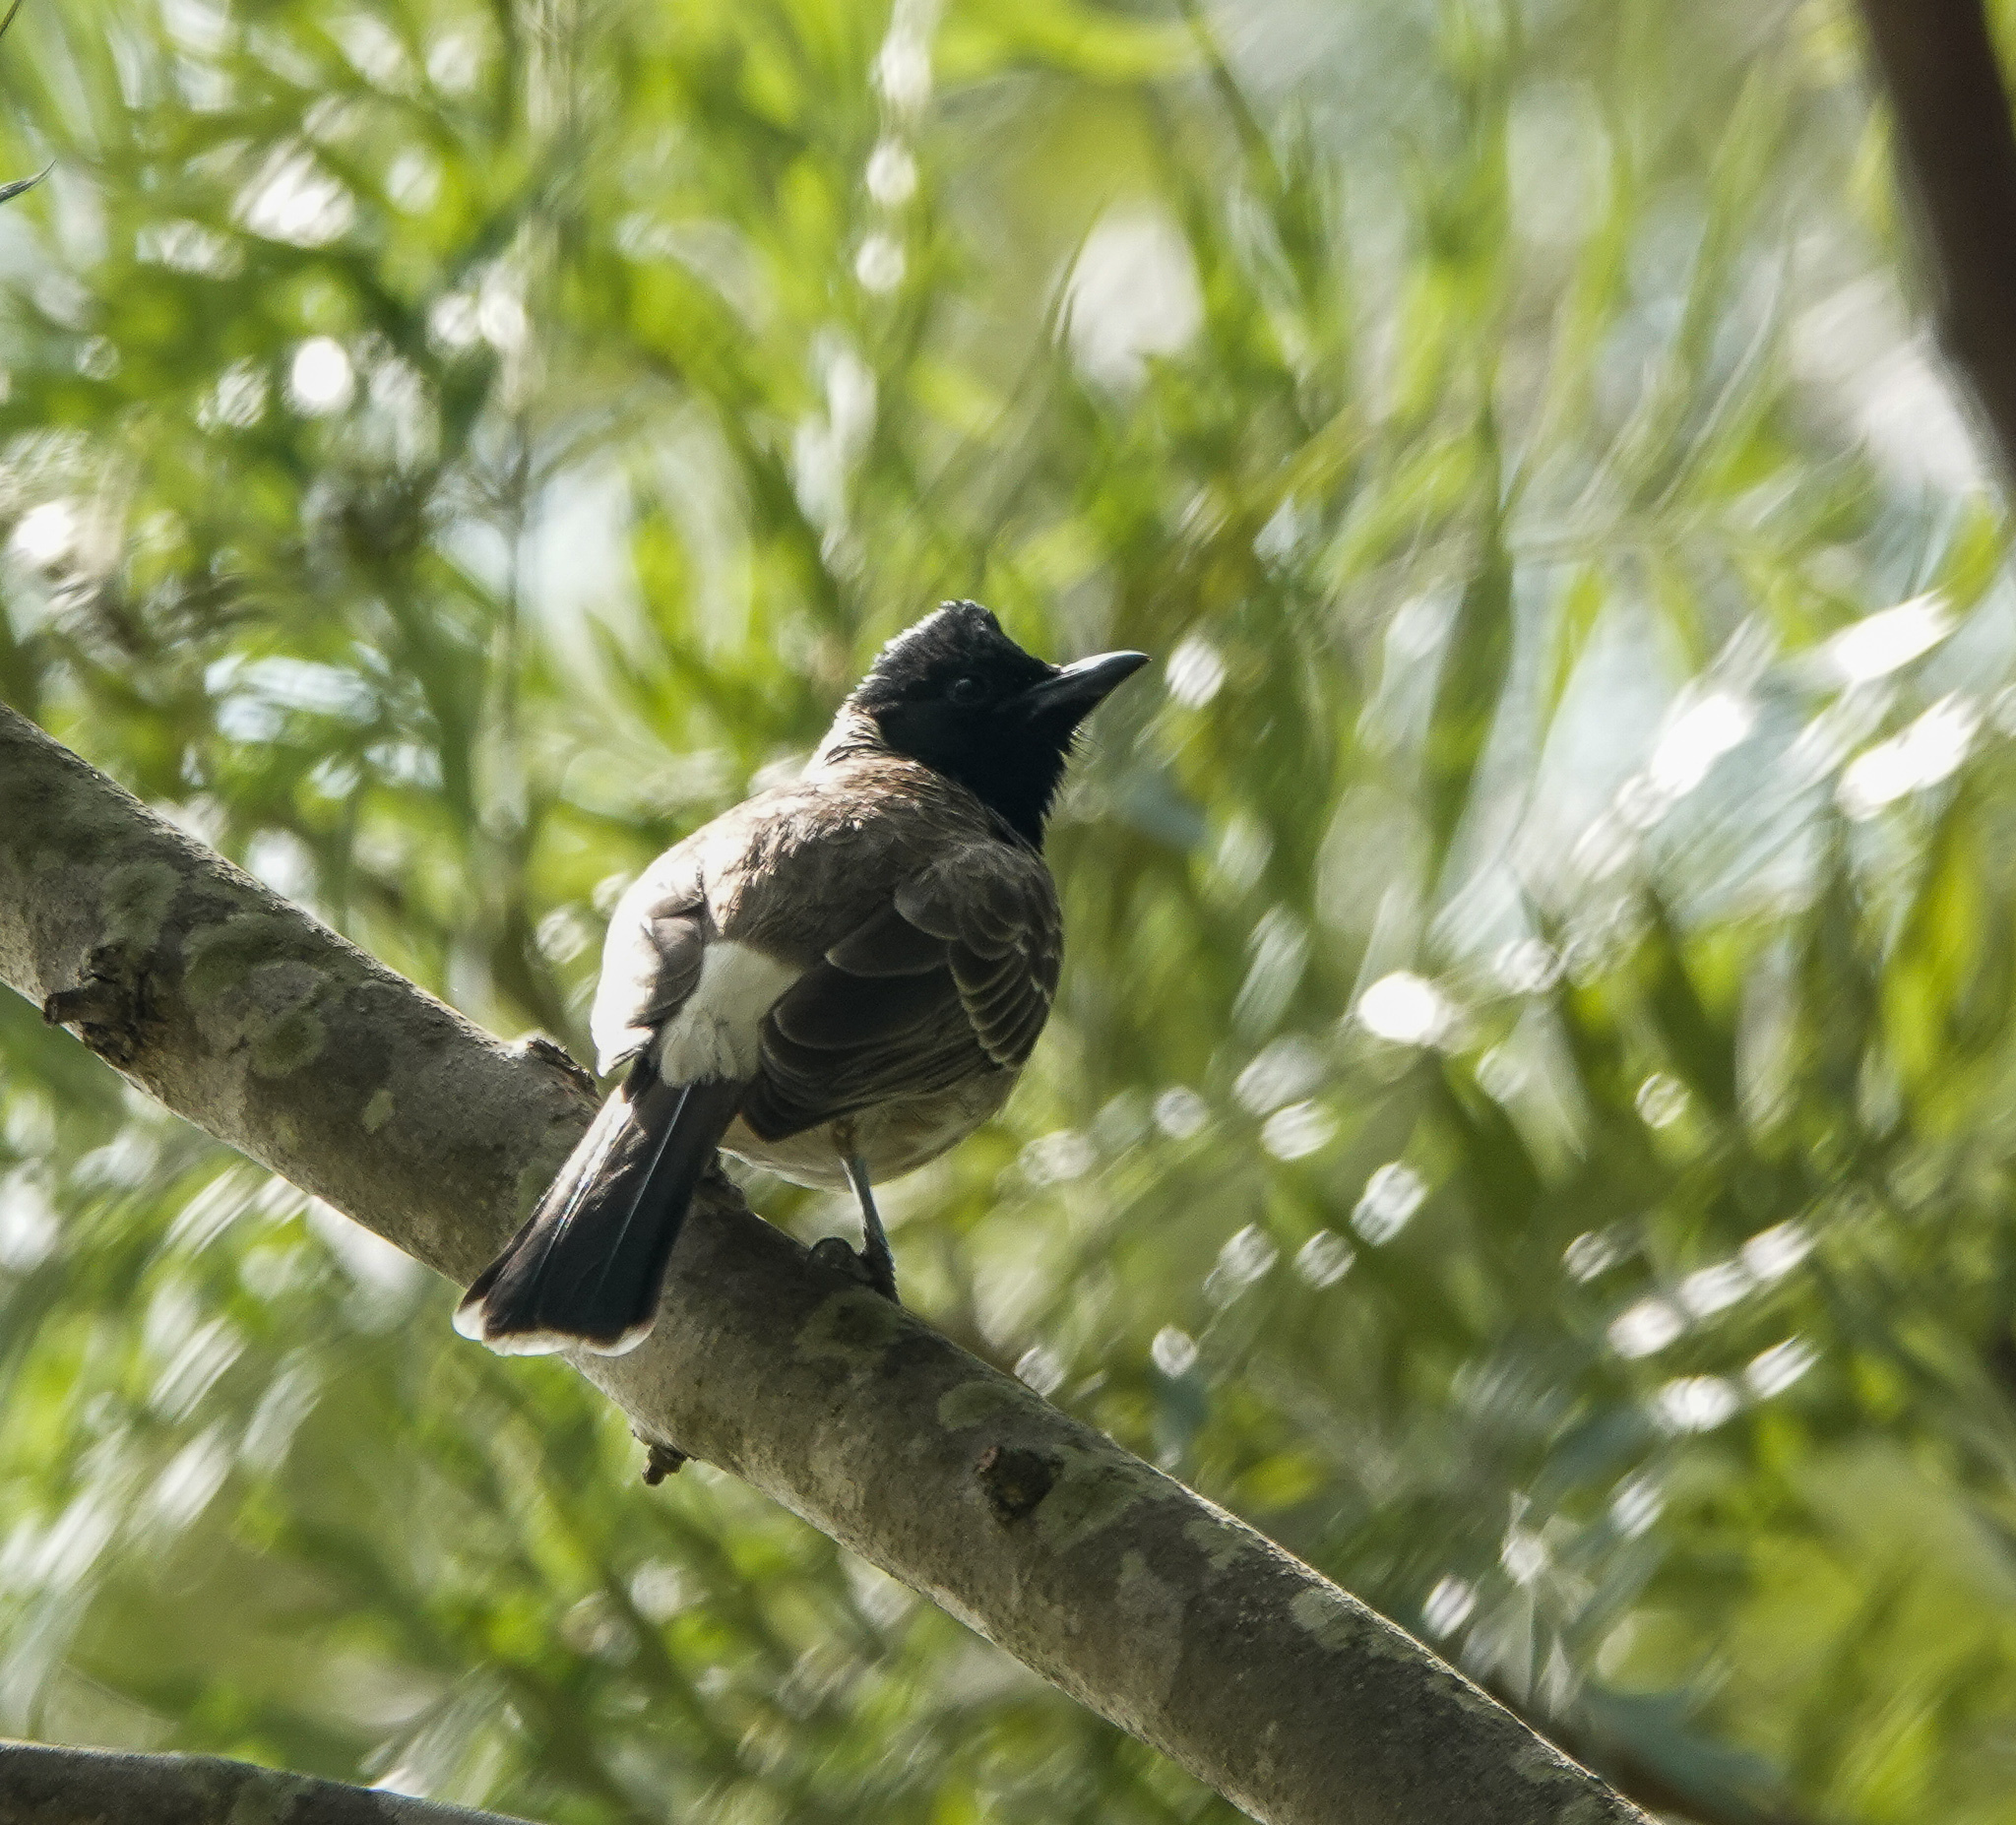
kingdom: Animalia
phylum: Chordata
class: Aves
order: Passeriformes
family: Pycnonotidae
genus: Pycnonotus
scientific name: Pycnonotus cafer
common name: Red-vented bulbul
